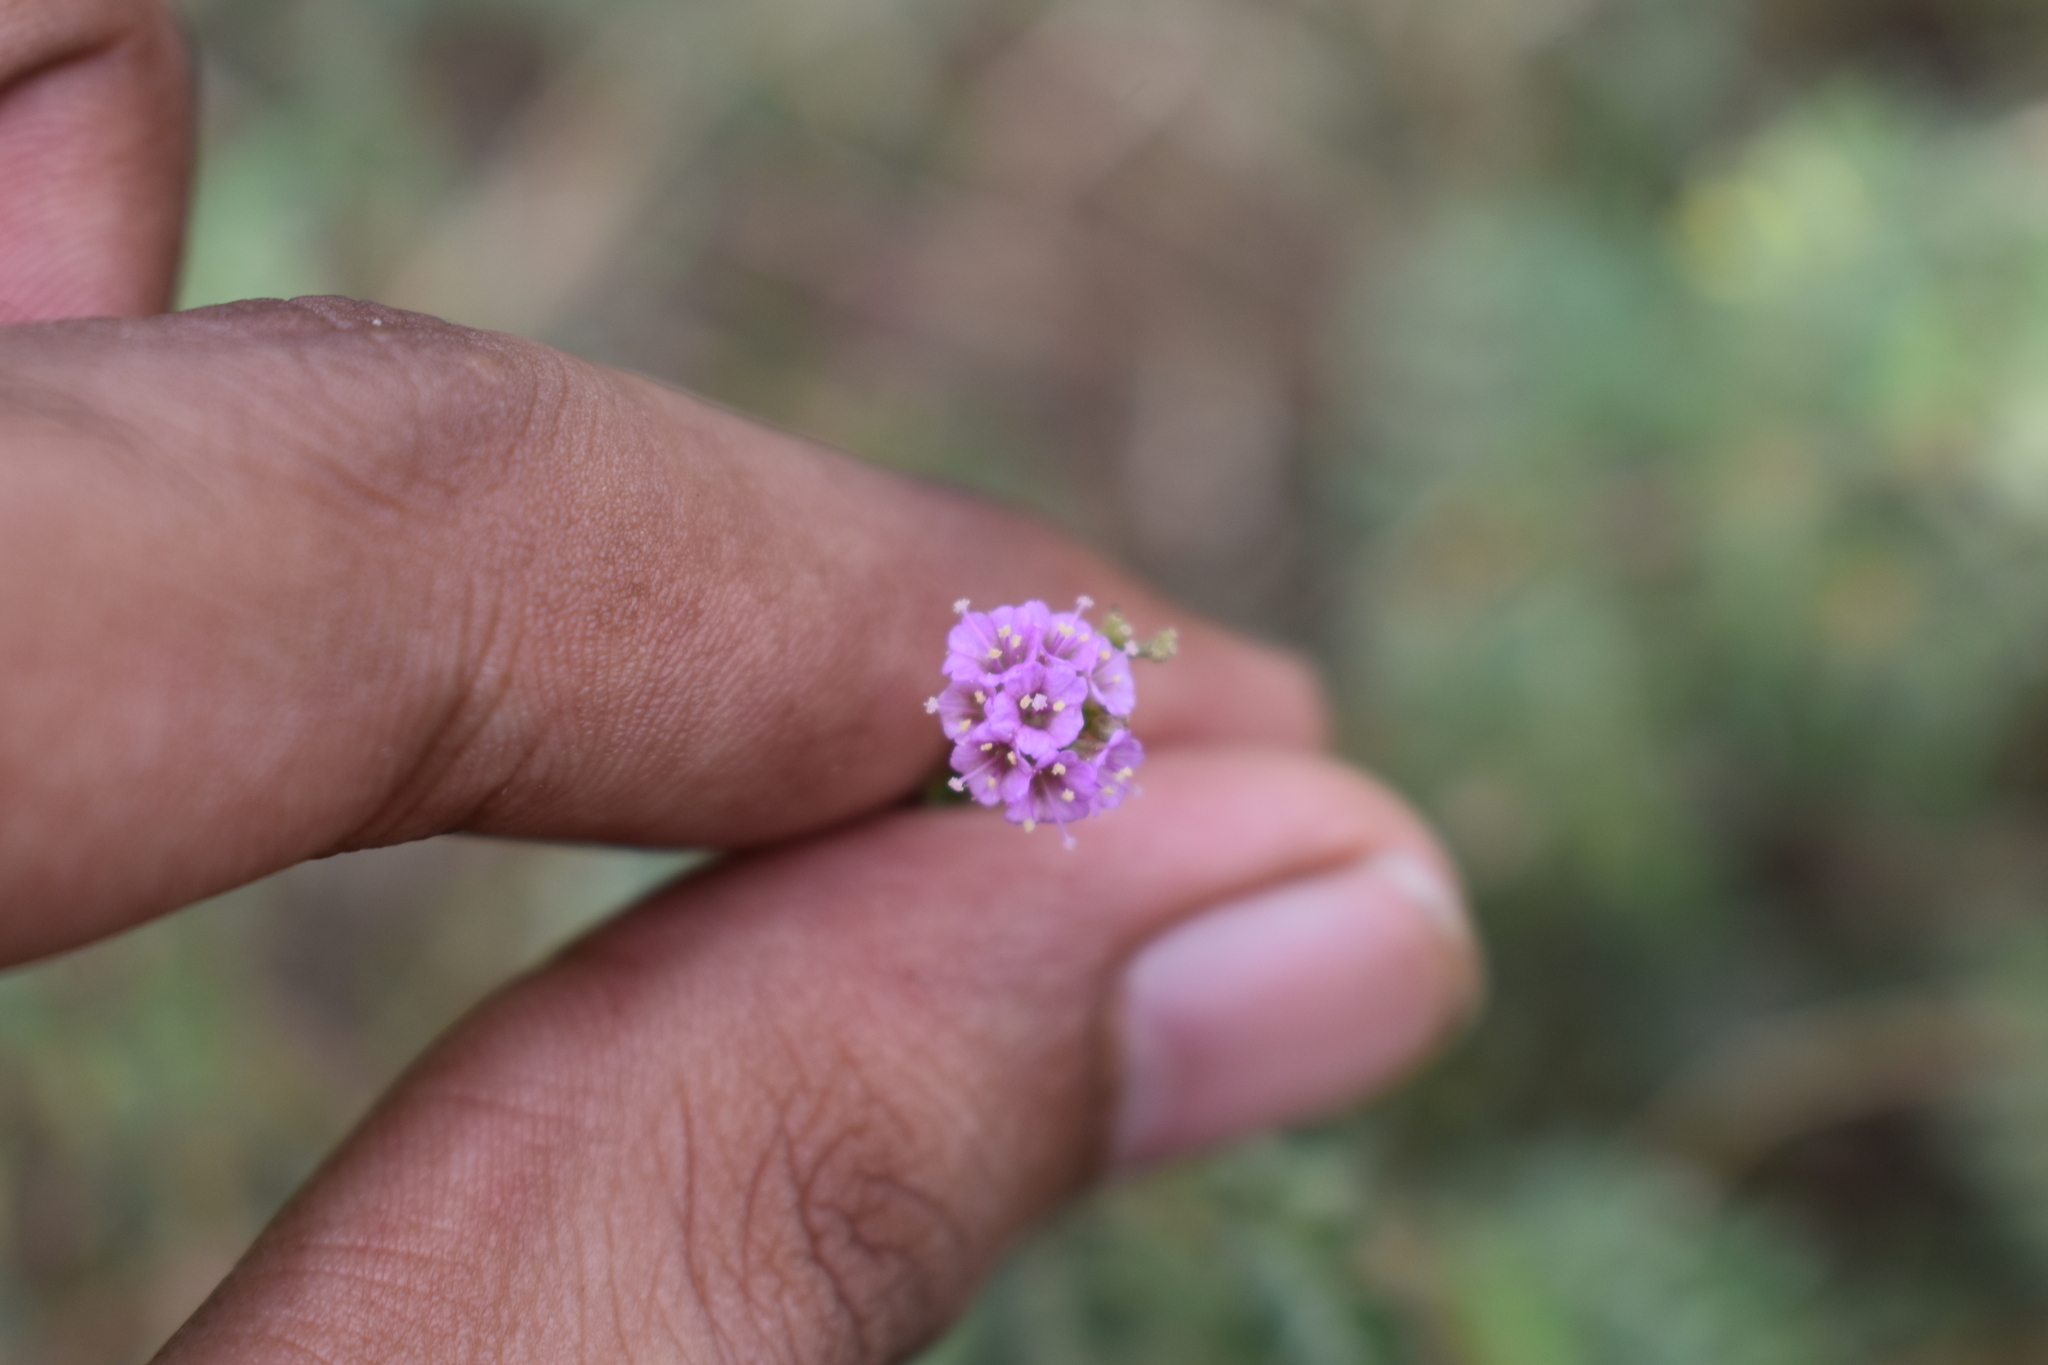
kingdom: Plantae
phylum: Tracheophyta
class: Magnoliopsida
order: Caryophyllales
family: Nyctaginaceae
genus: Boerhavia
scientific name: Boerhavia diffusa
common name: Red spiderling
